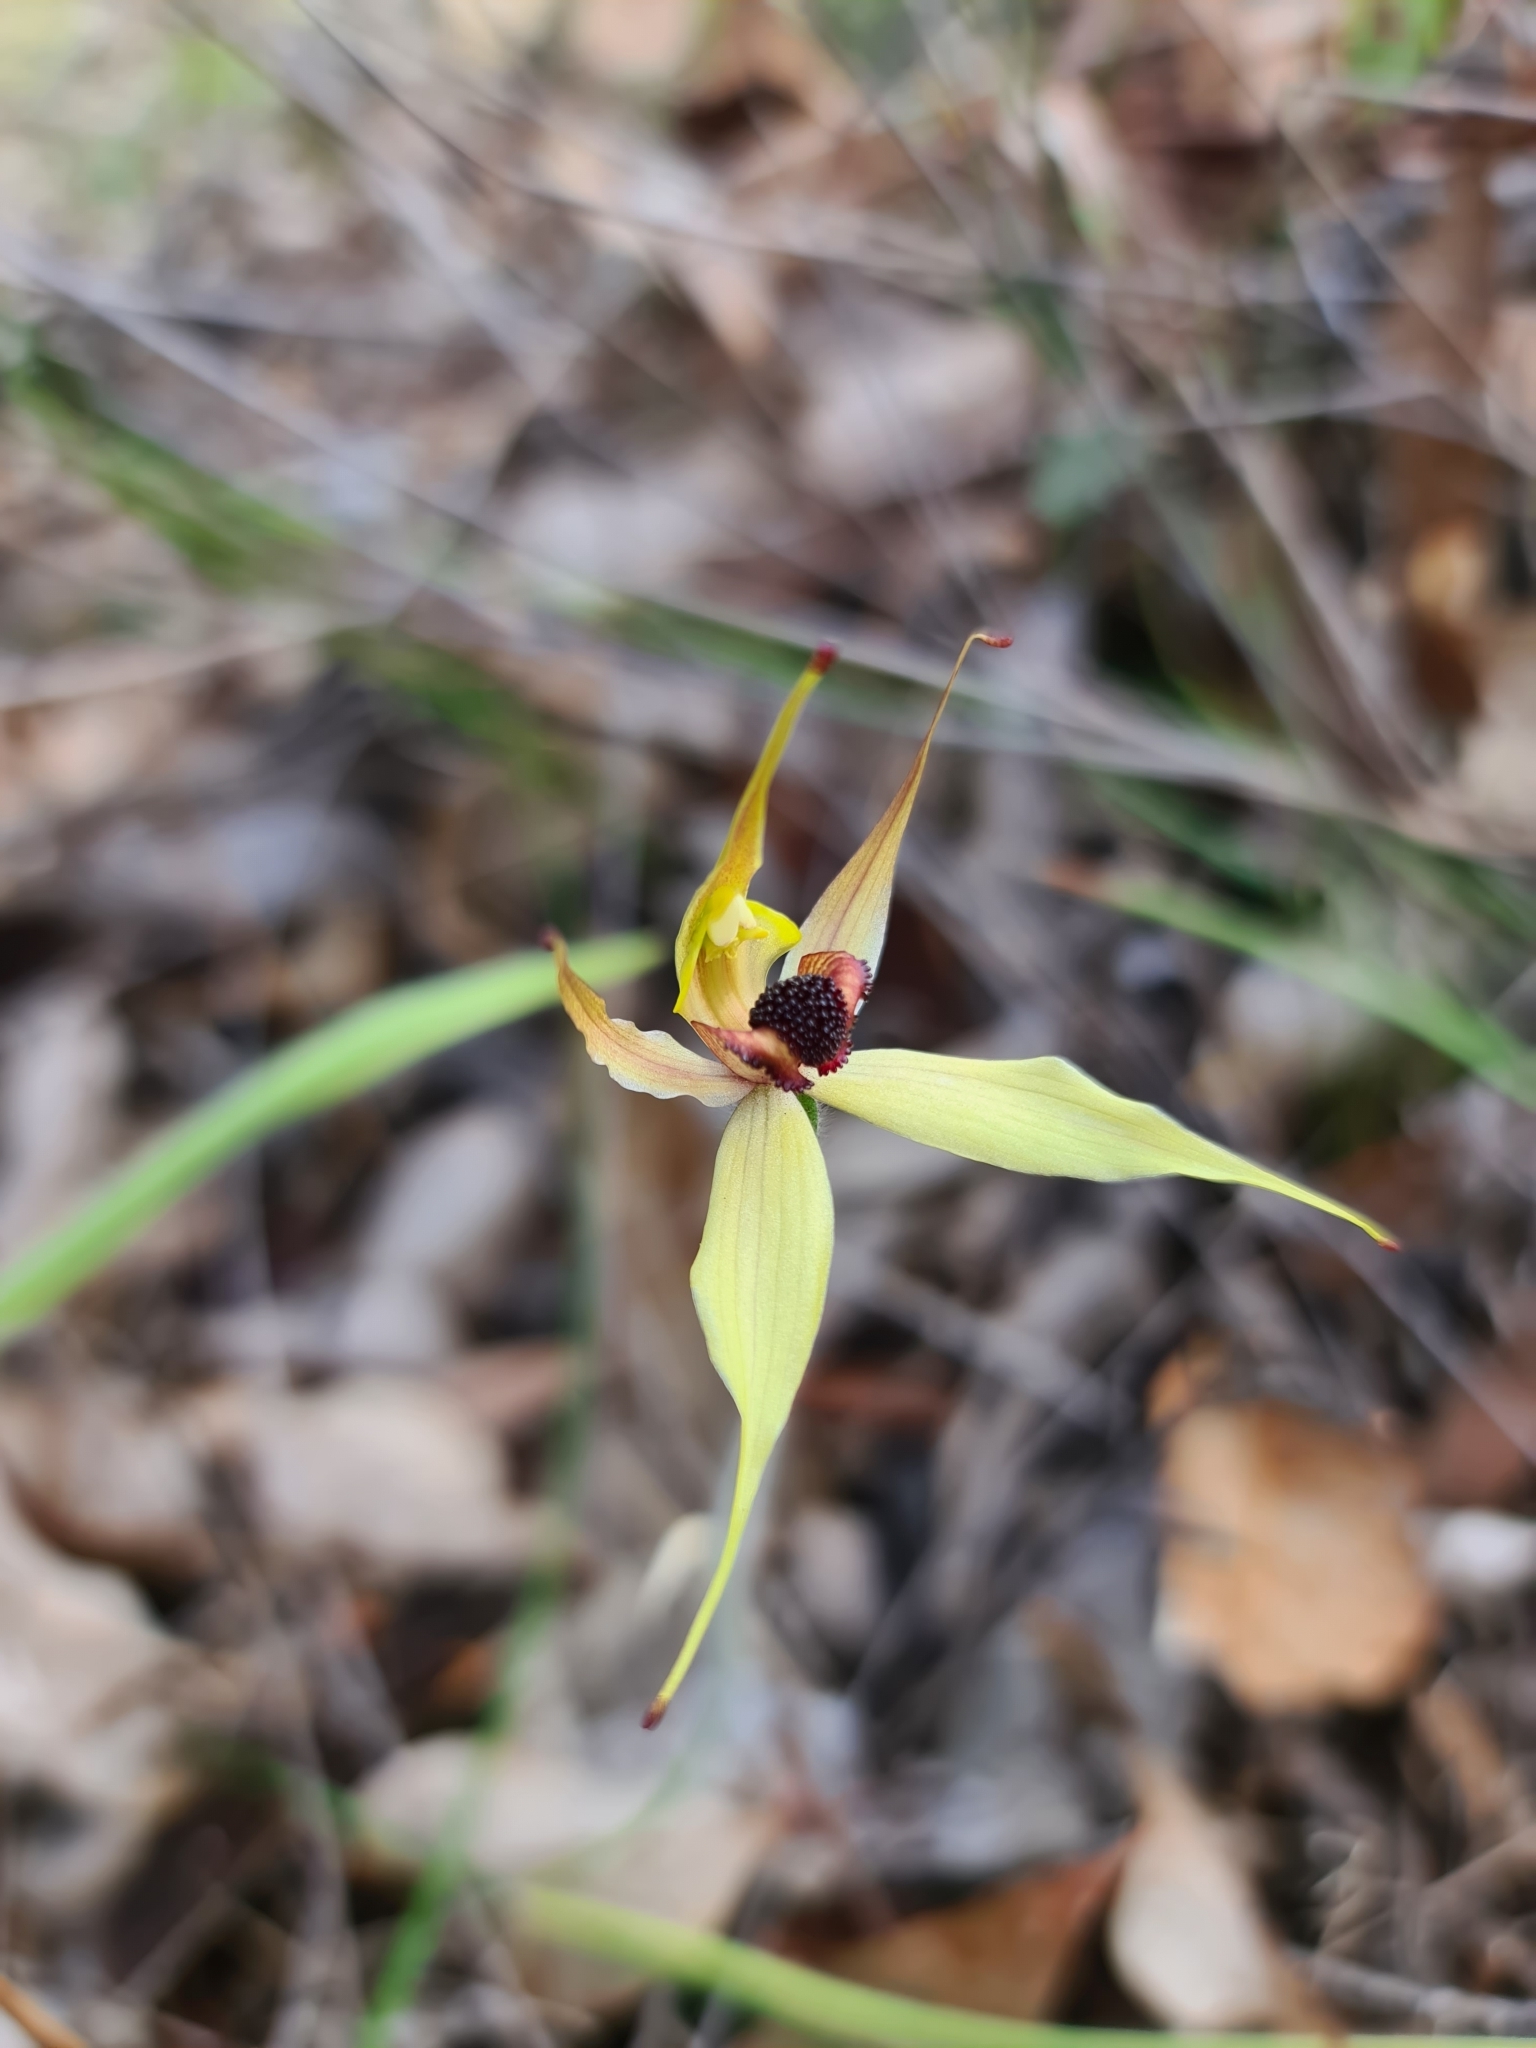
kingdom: Plantae
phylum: Tracheophyta
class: Liliopsida
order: Asparagales
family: Orchidaceae
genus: Caladenia
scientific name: Caladenia macrostylis
